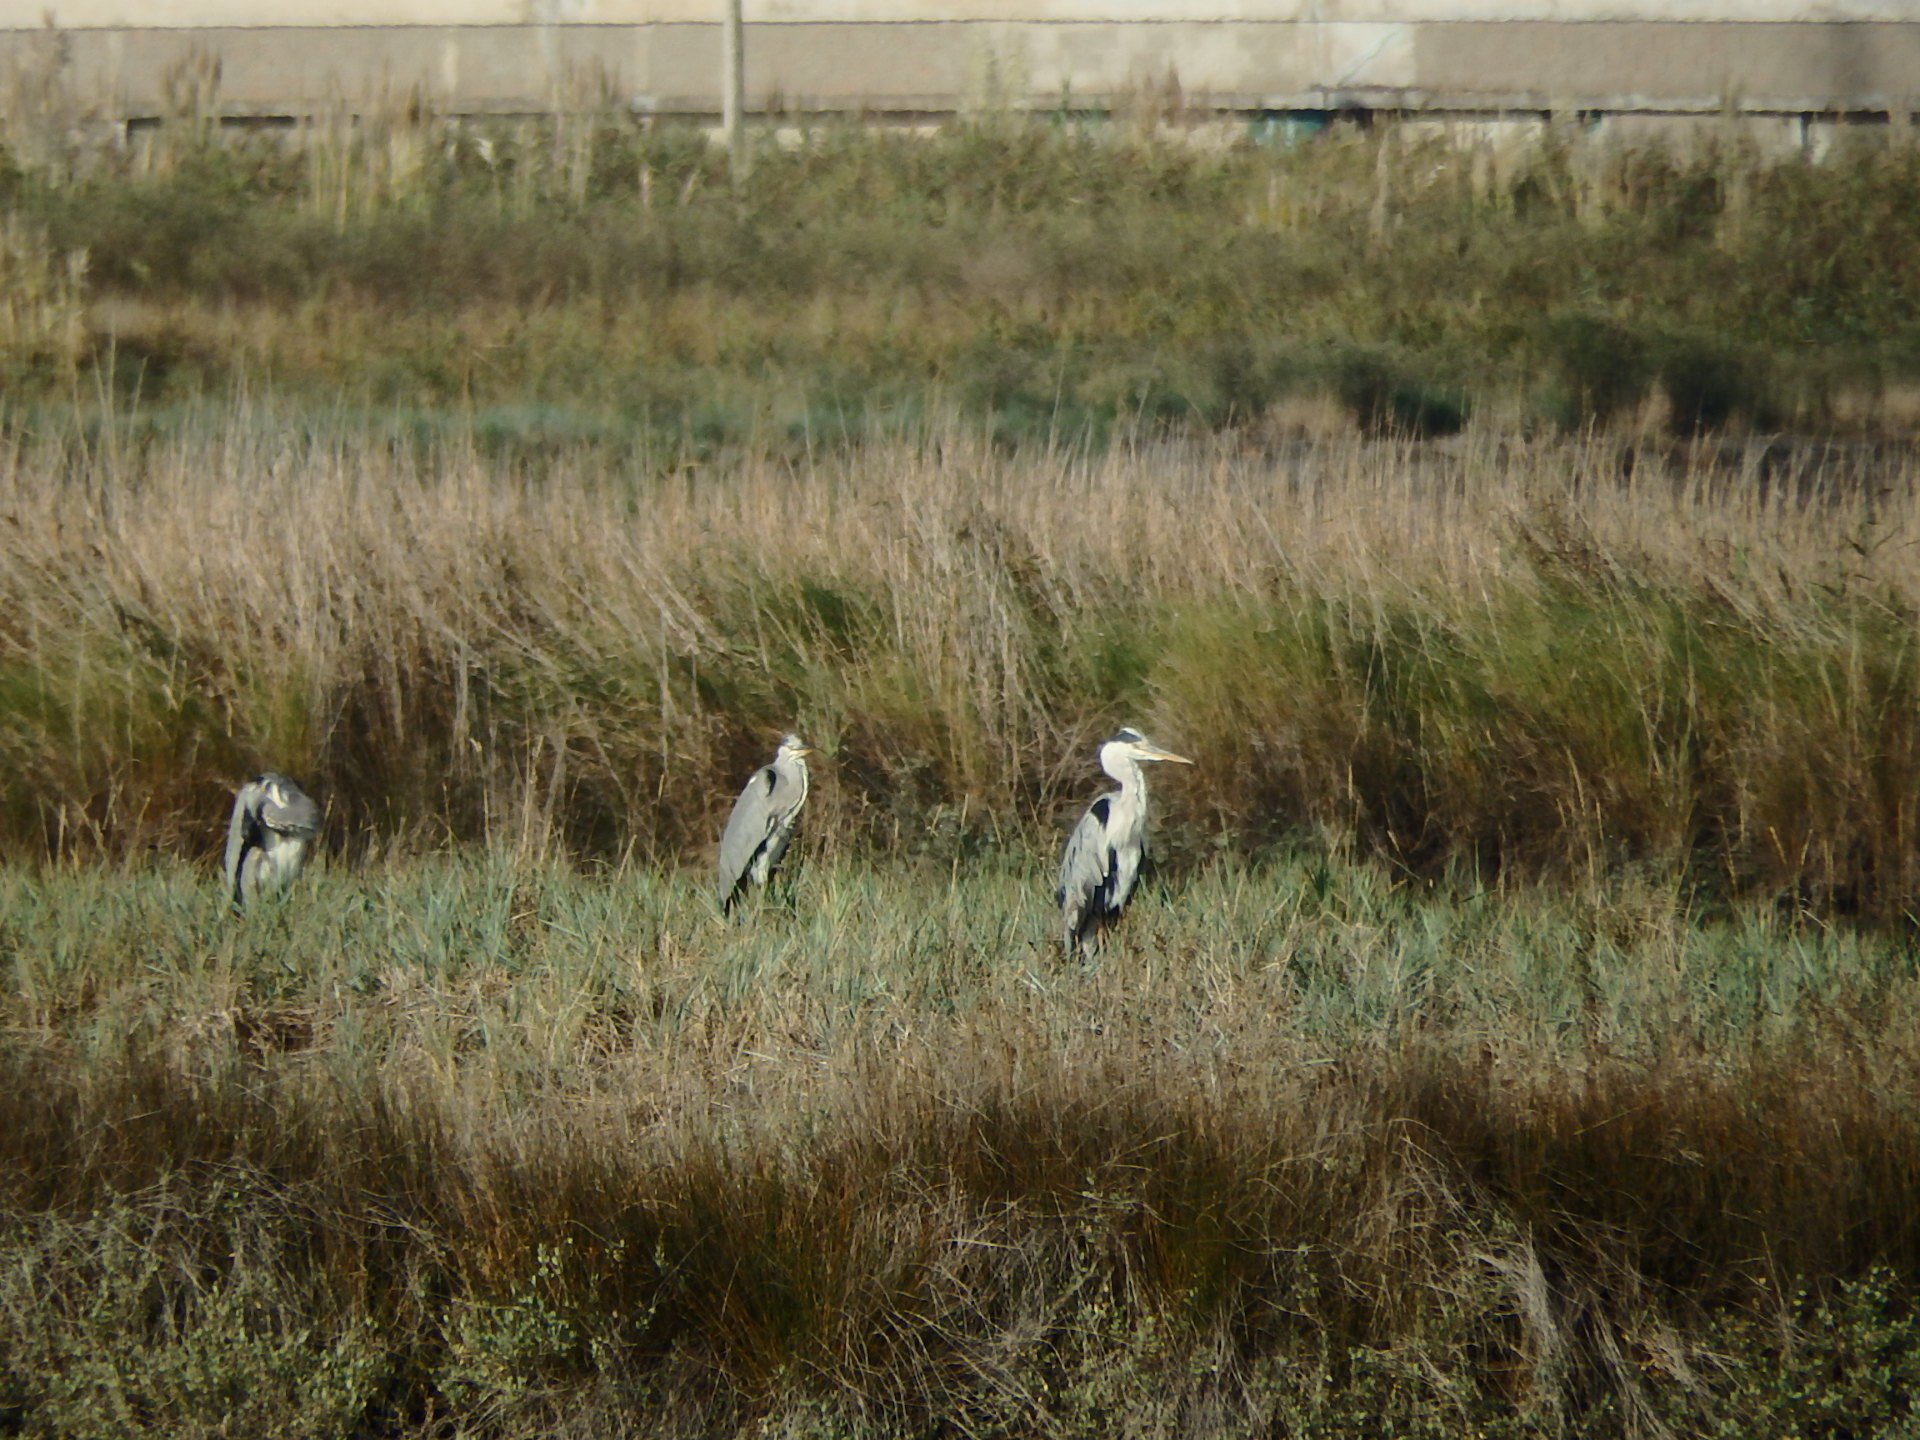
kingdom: Animalia
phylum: Chordata
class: Aves
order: Pelecaniformes
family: Ardeidae
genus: Ardea
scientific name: Ardea cinerea
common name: Grey heron
